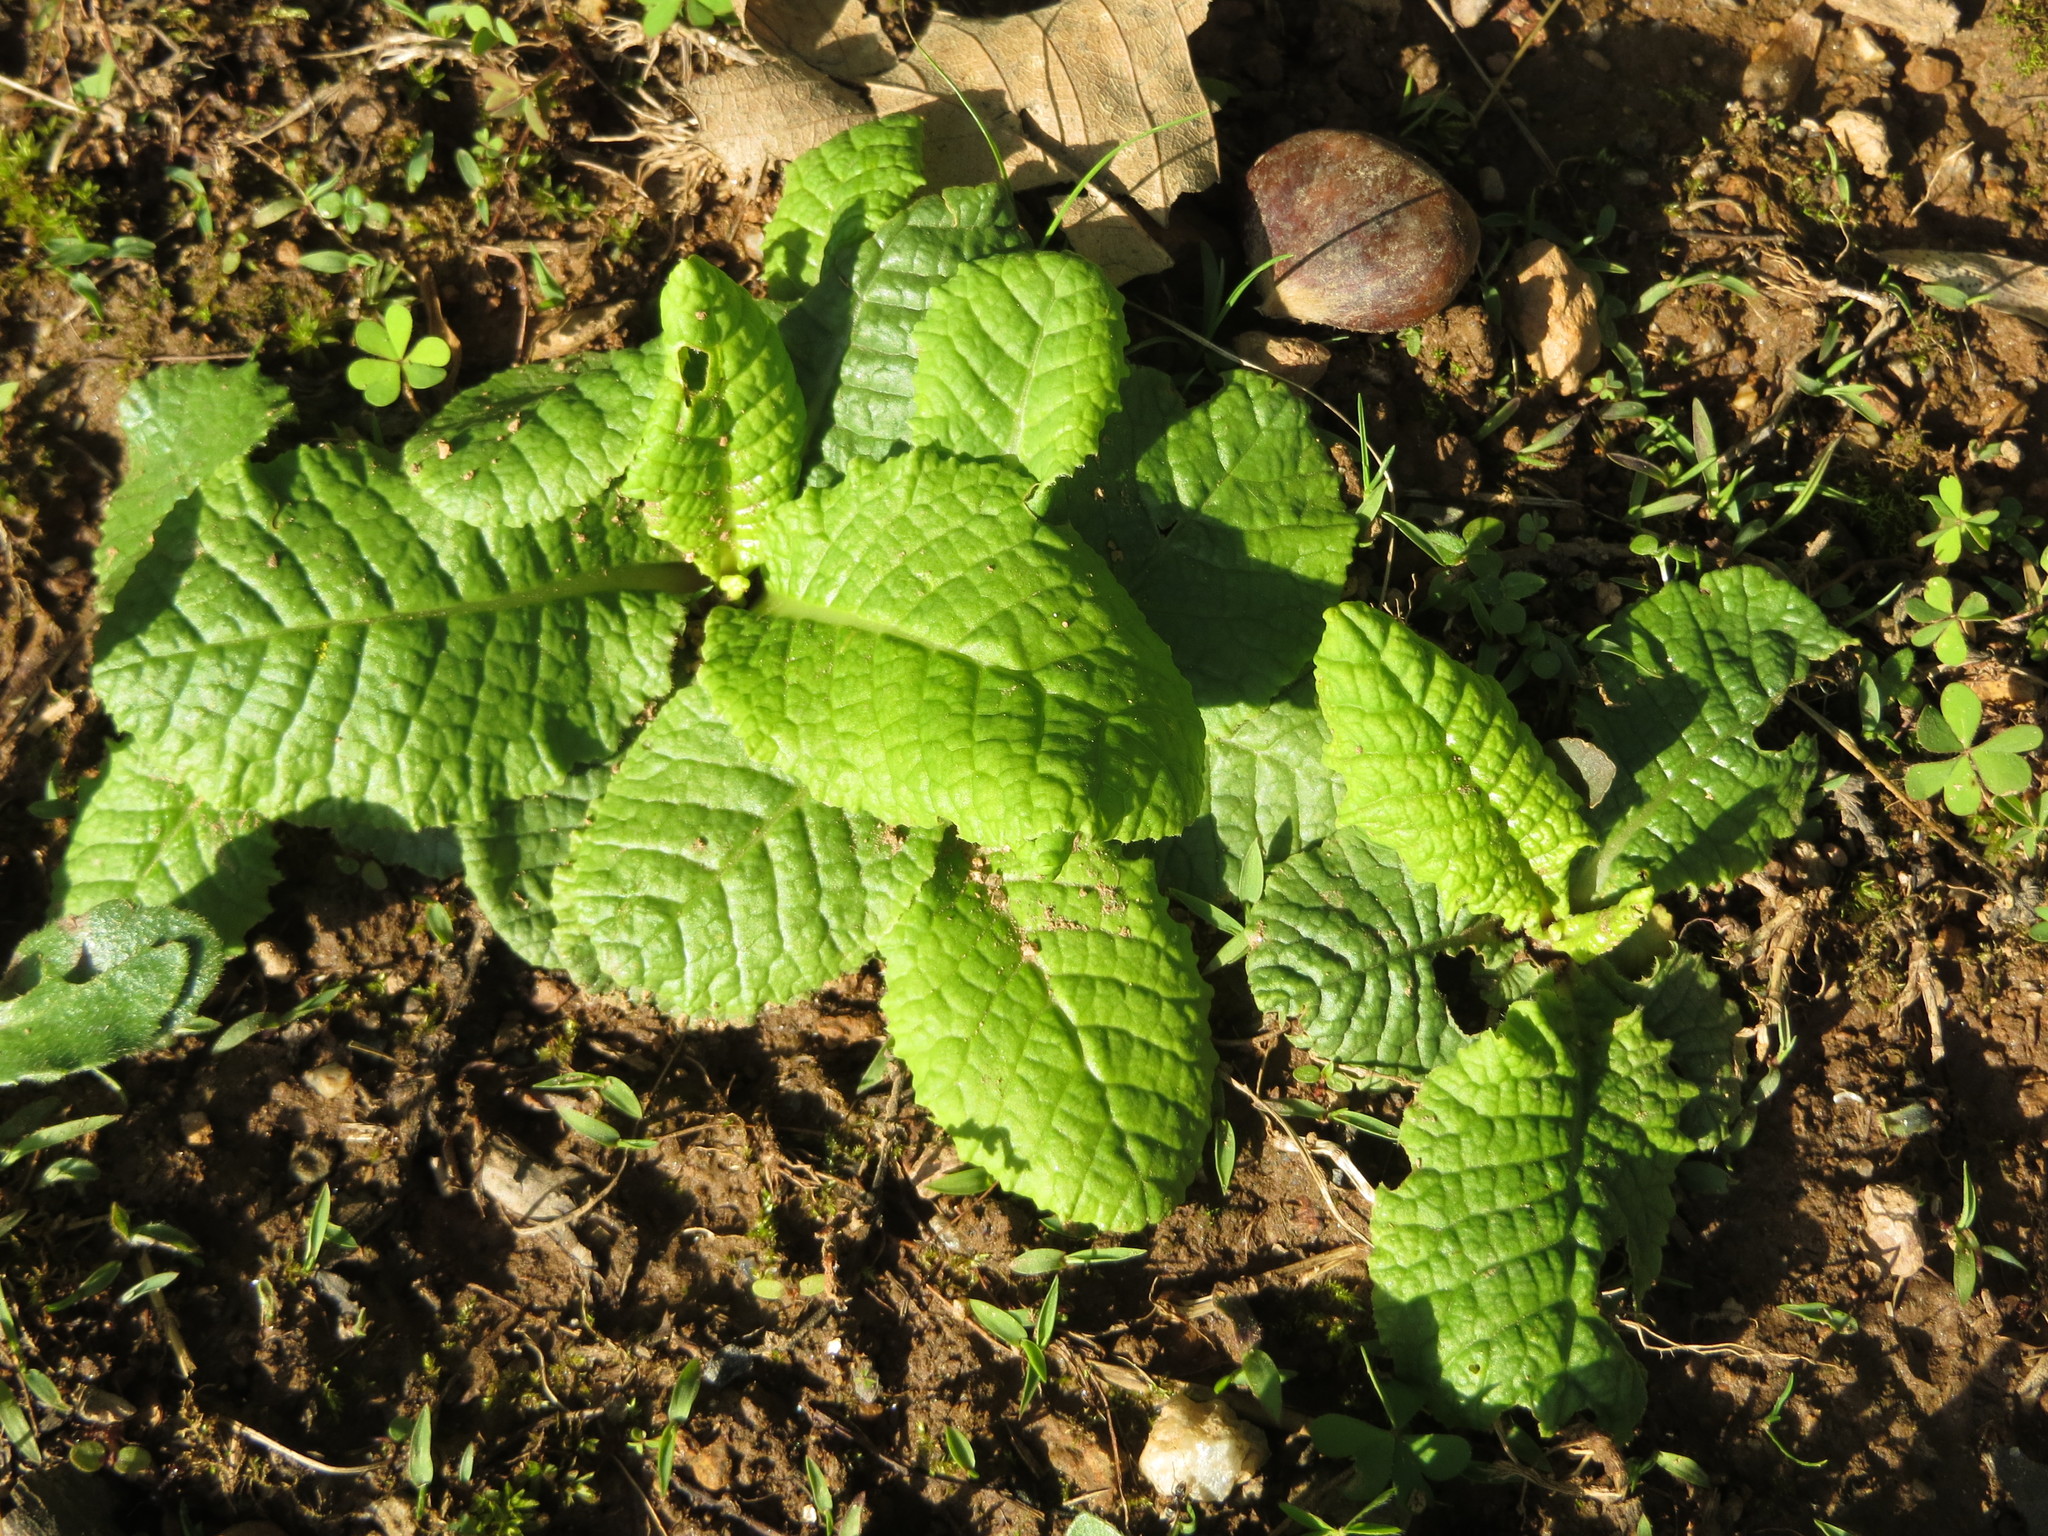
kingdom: Plantae
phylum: Tracheophyta
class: Magnoliopsida
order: Ericales
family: Primulaceae
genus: Primula
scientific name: Primula vulgaris
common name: Primrose
